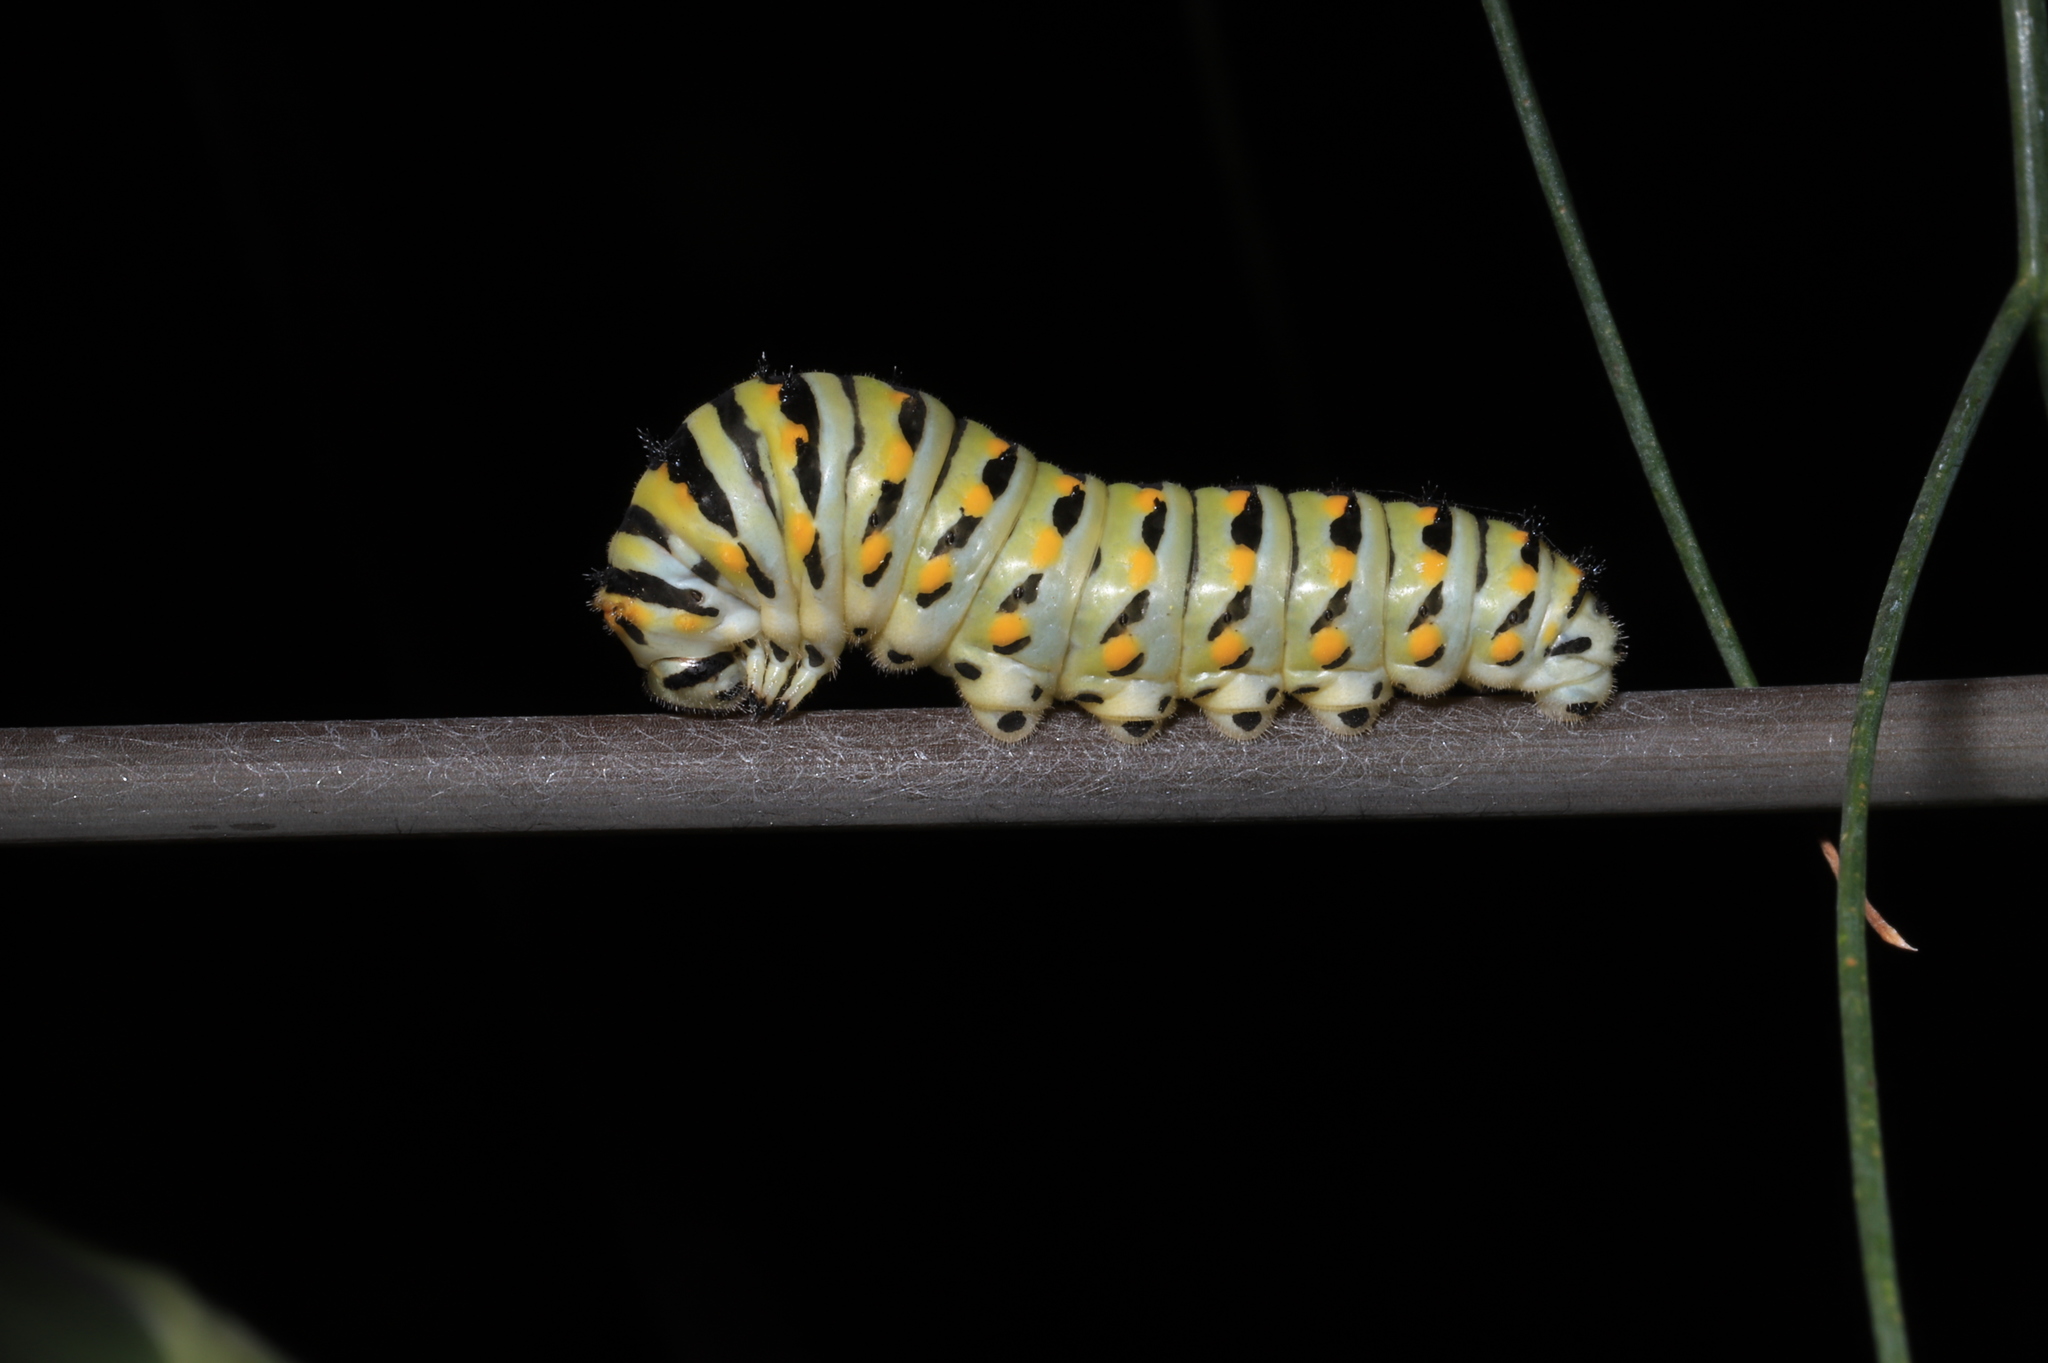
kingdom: Animalia
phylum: Arthropoda
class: Insecta
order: Lepidoptera
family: Papilionidae
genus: Papilio
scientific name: Papilio polyxenes
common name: Black swallowtail
